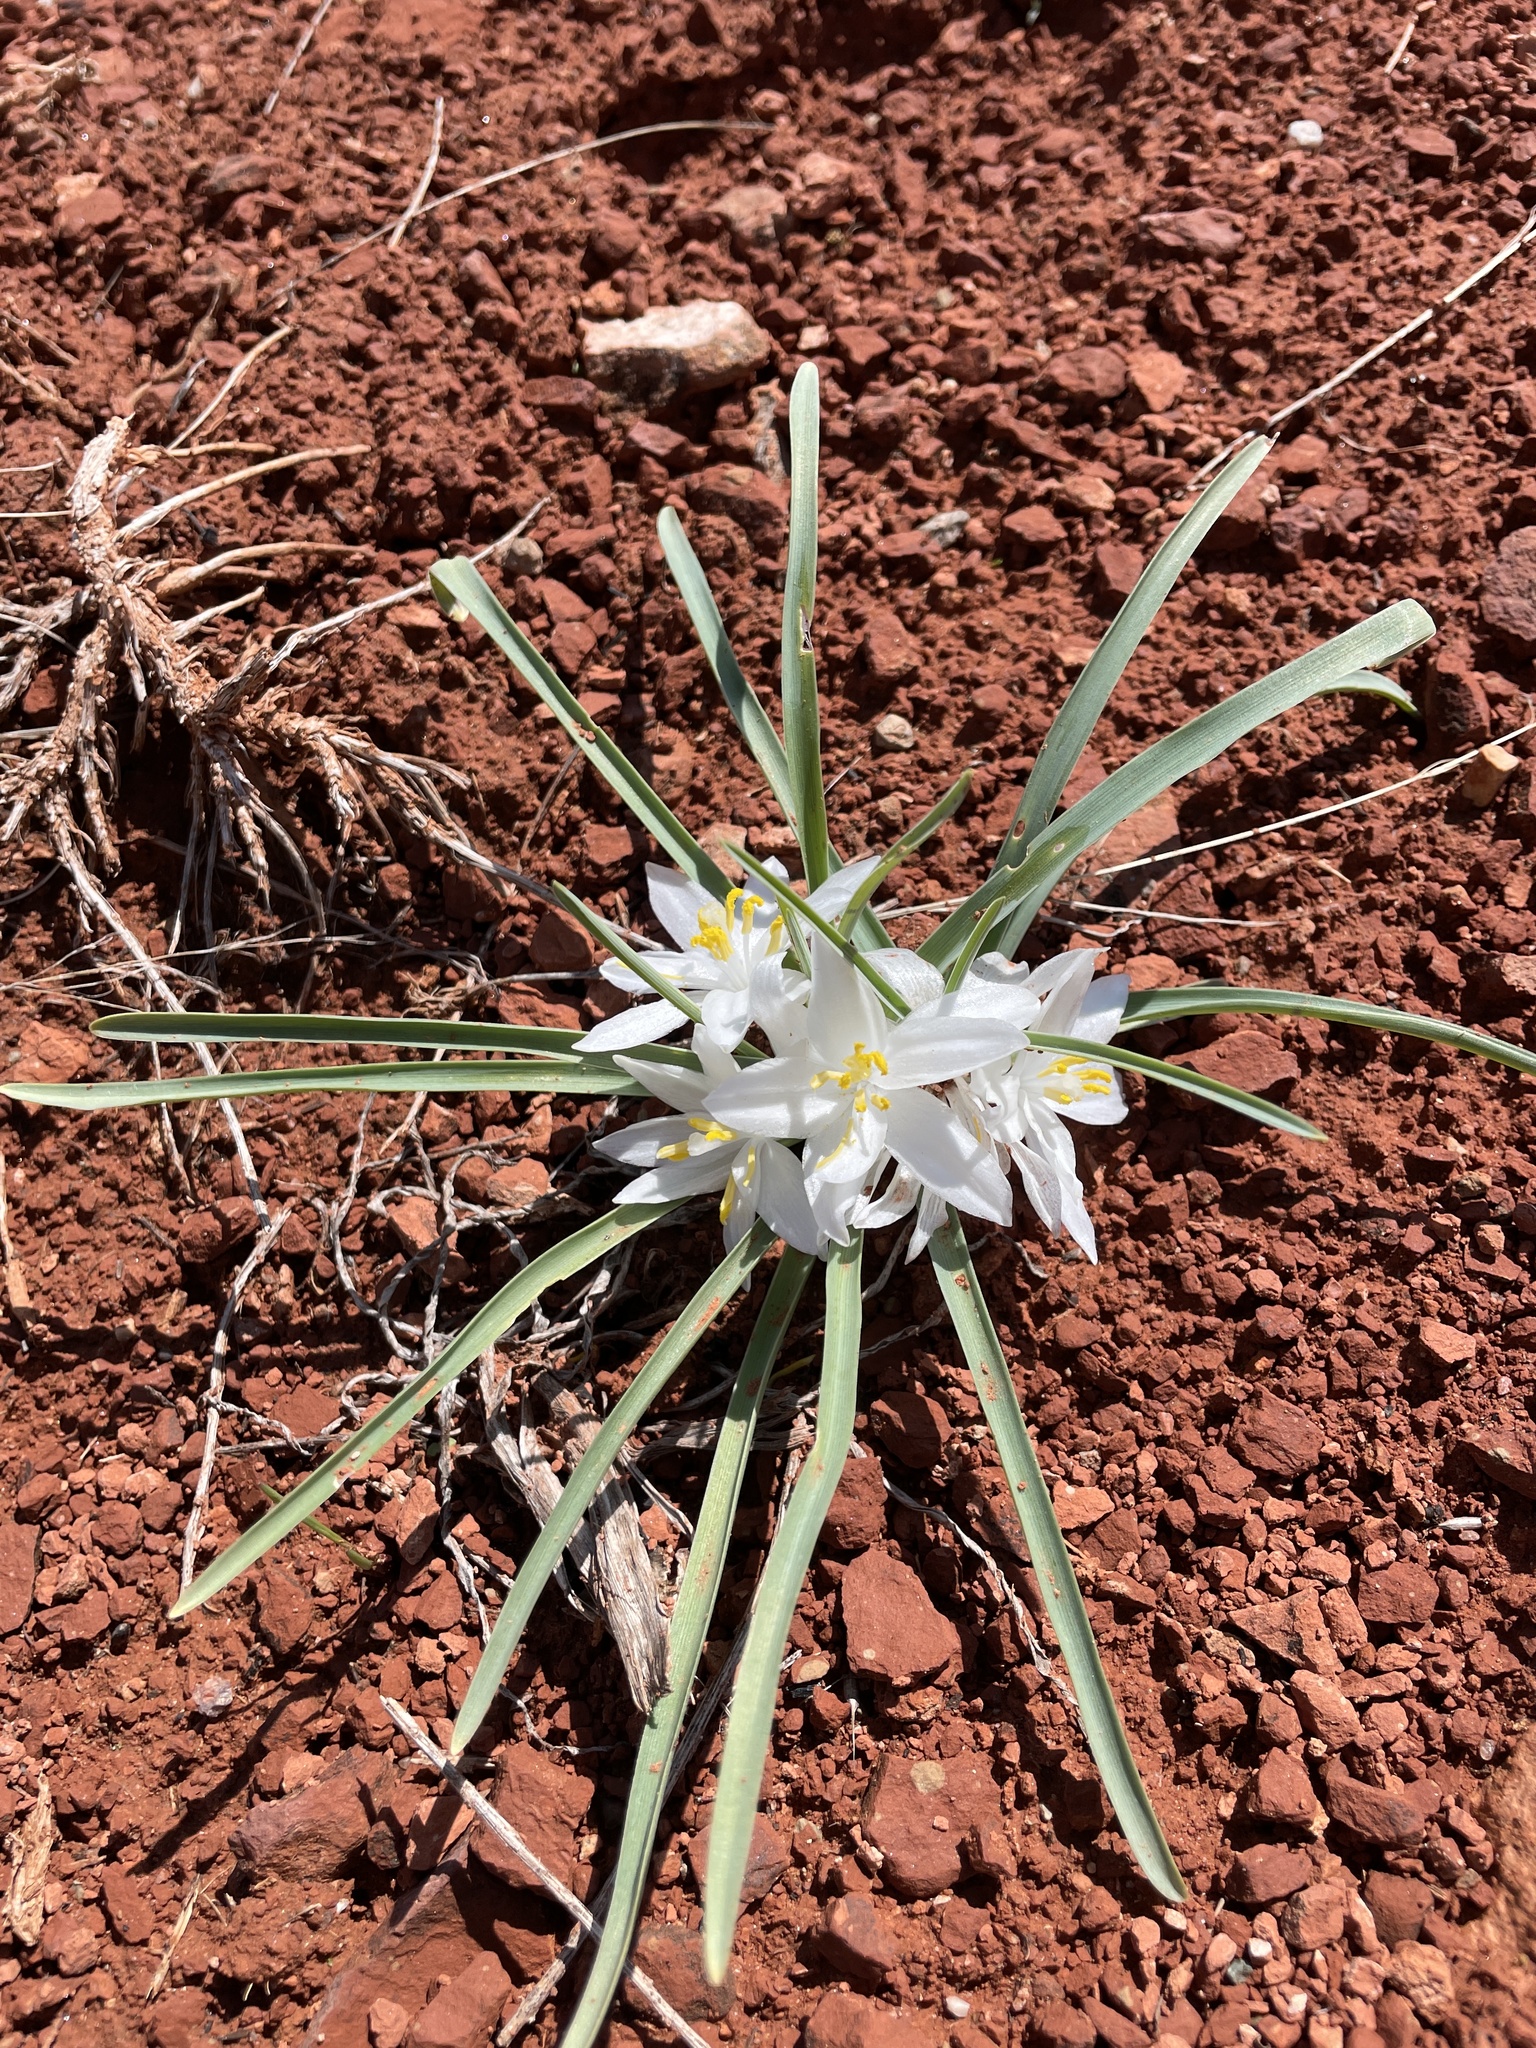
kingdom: Plantae
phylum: Tracheophyta
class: Liliopsida
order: Asparagales
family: Asparagaceae
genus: Leucocrinum
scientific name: Leucocrinum montanum
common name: Mountain-lily
